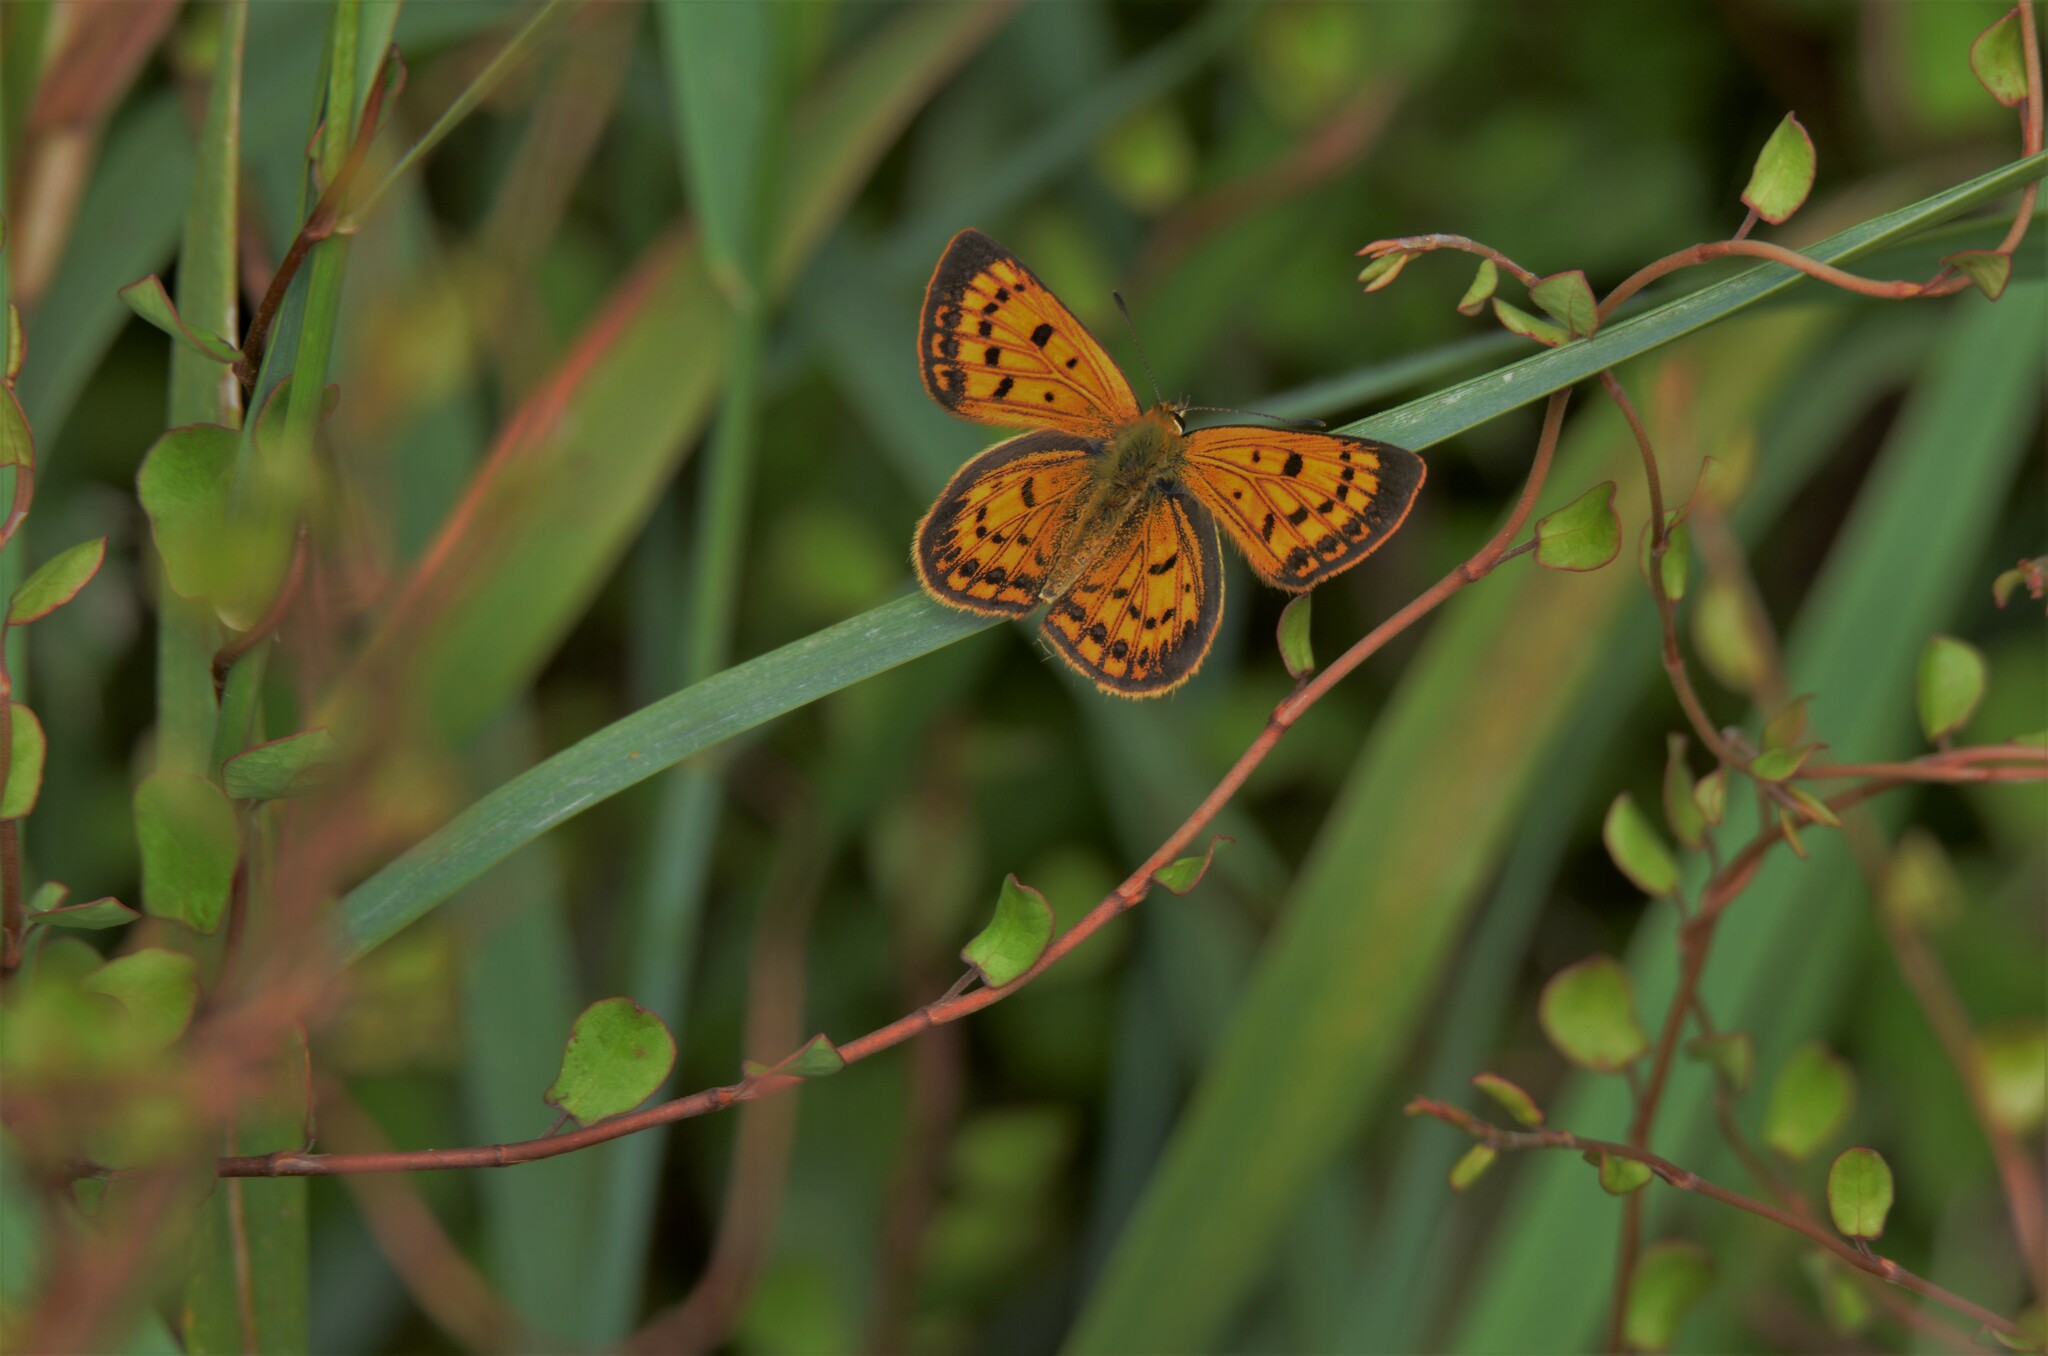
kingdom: Animalia
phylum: Arthropoda
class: Insecta
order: Lepidoptera
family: Lycaenidae
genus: Lycaena
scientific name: Lycaena
